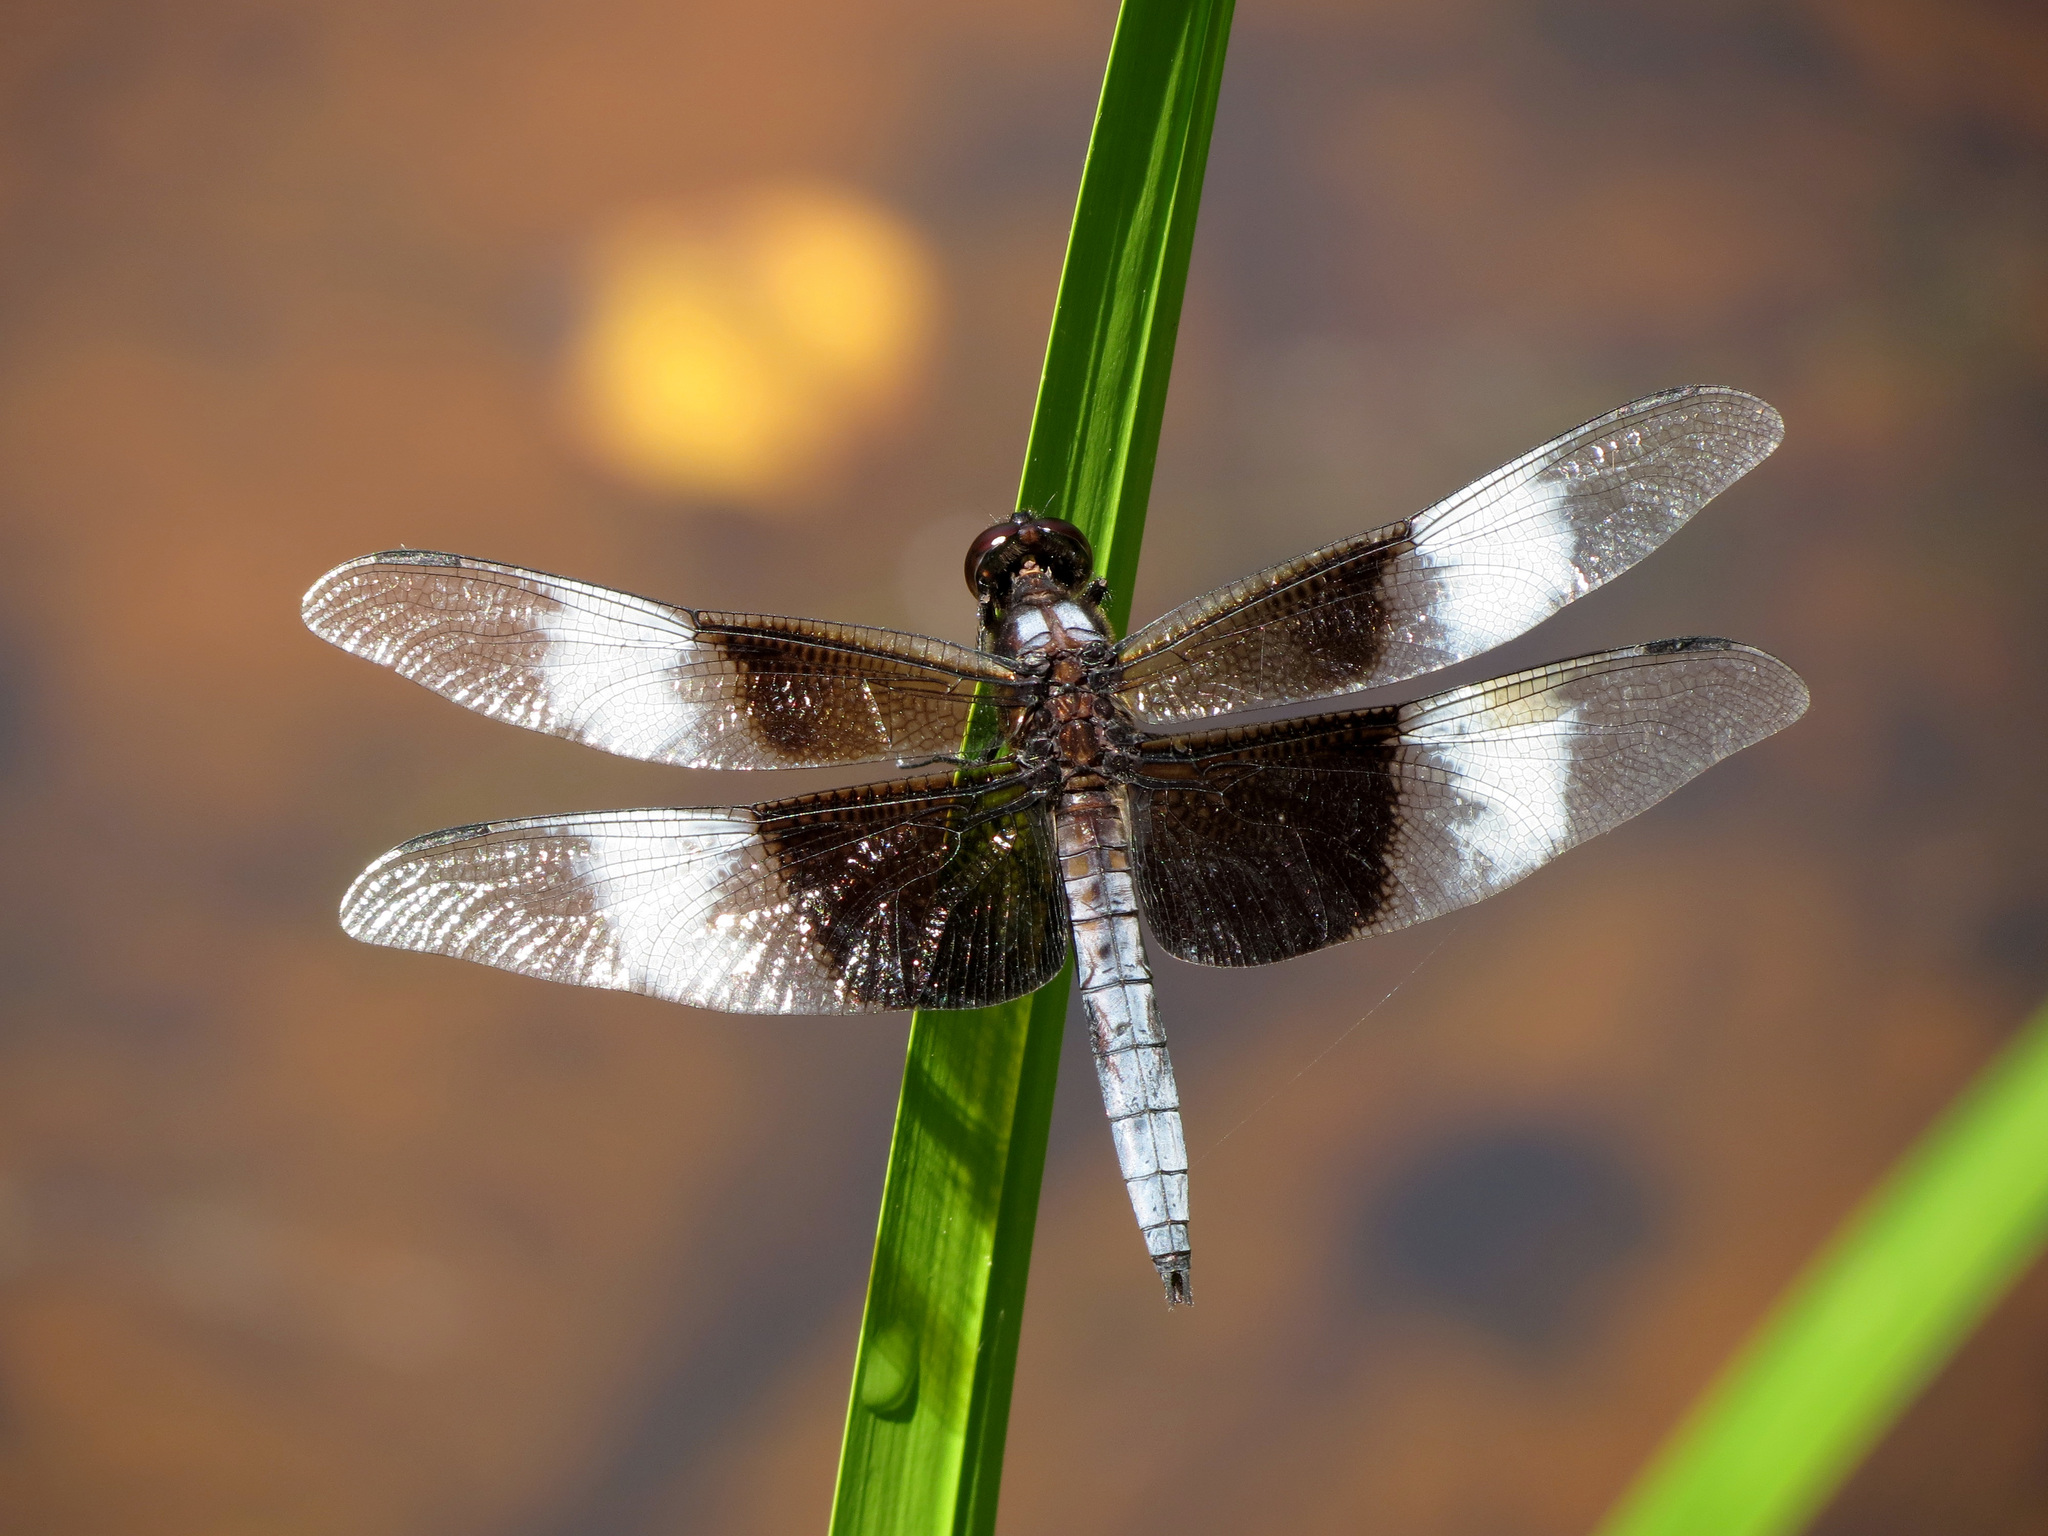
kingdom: Animalia
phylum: Arthropoda
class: Insecta
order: Odonata
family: Libellulidae
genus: Libellula
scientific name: Libellula luctuosa
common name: Widow skimmer
